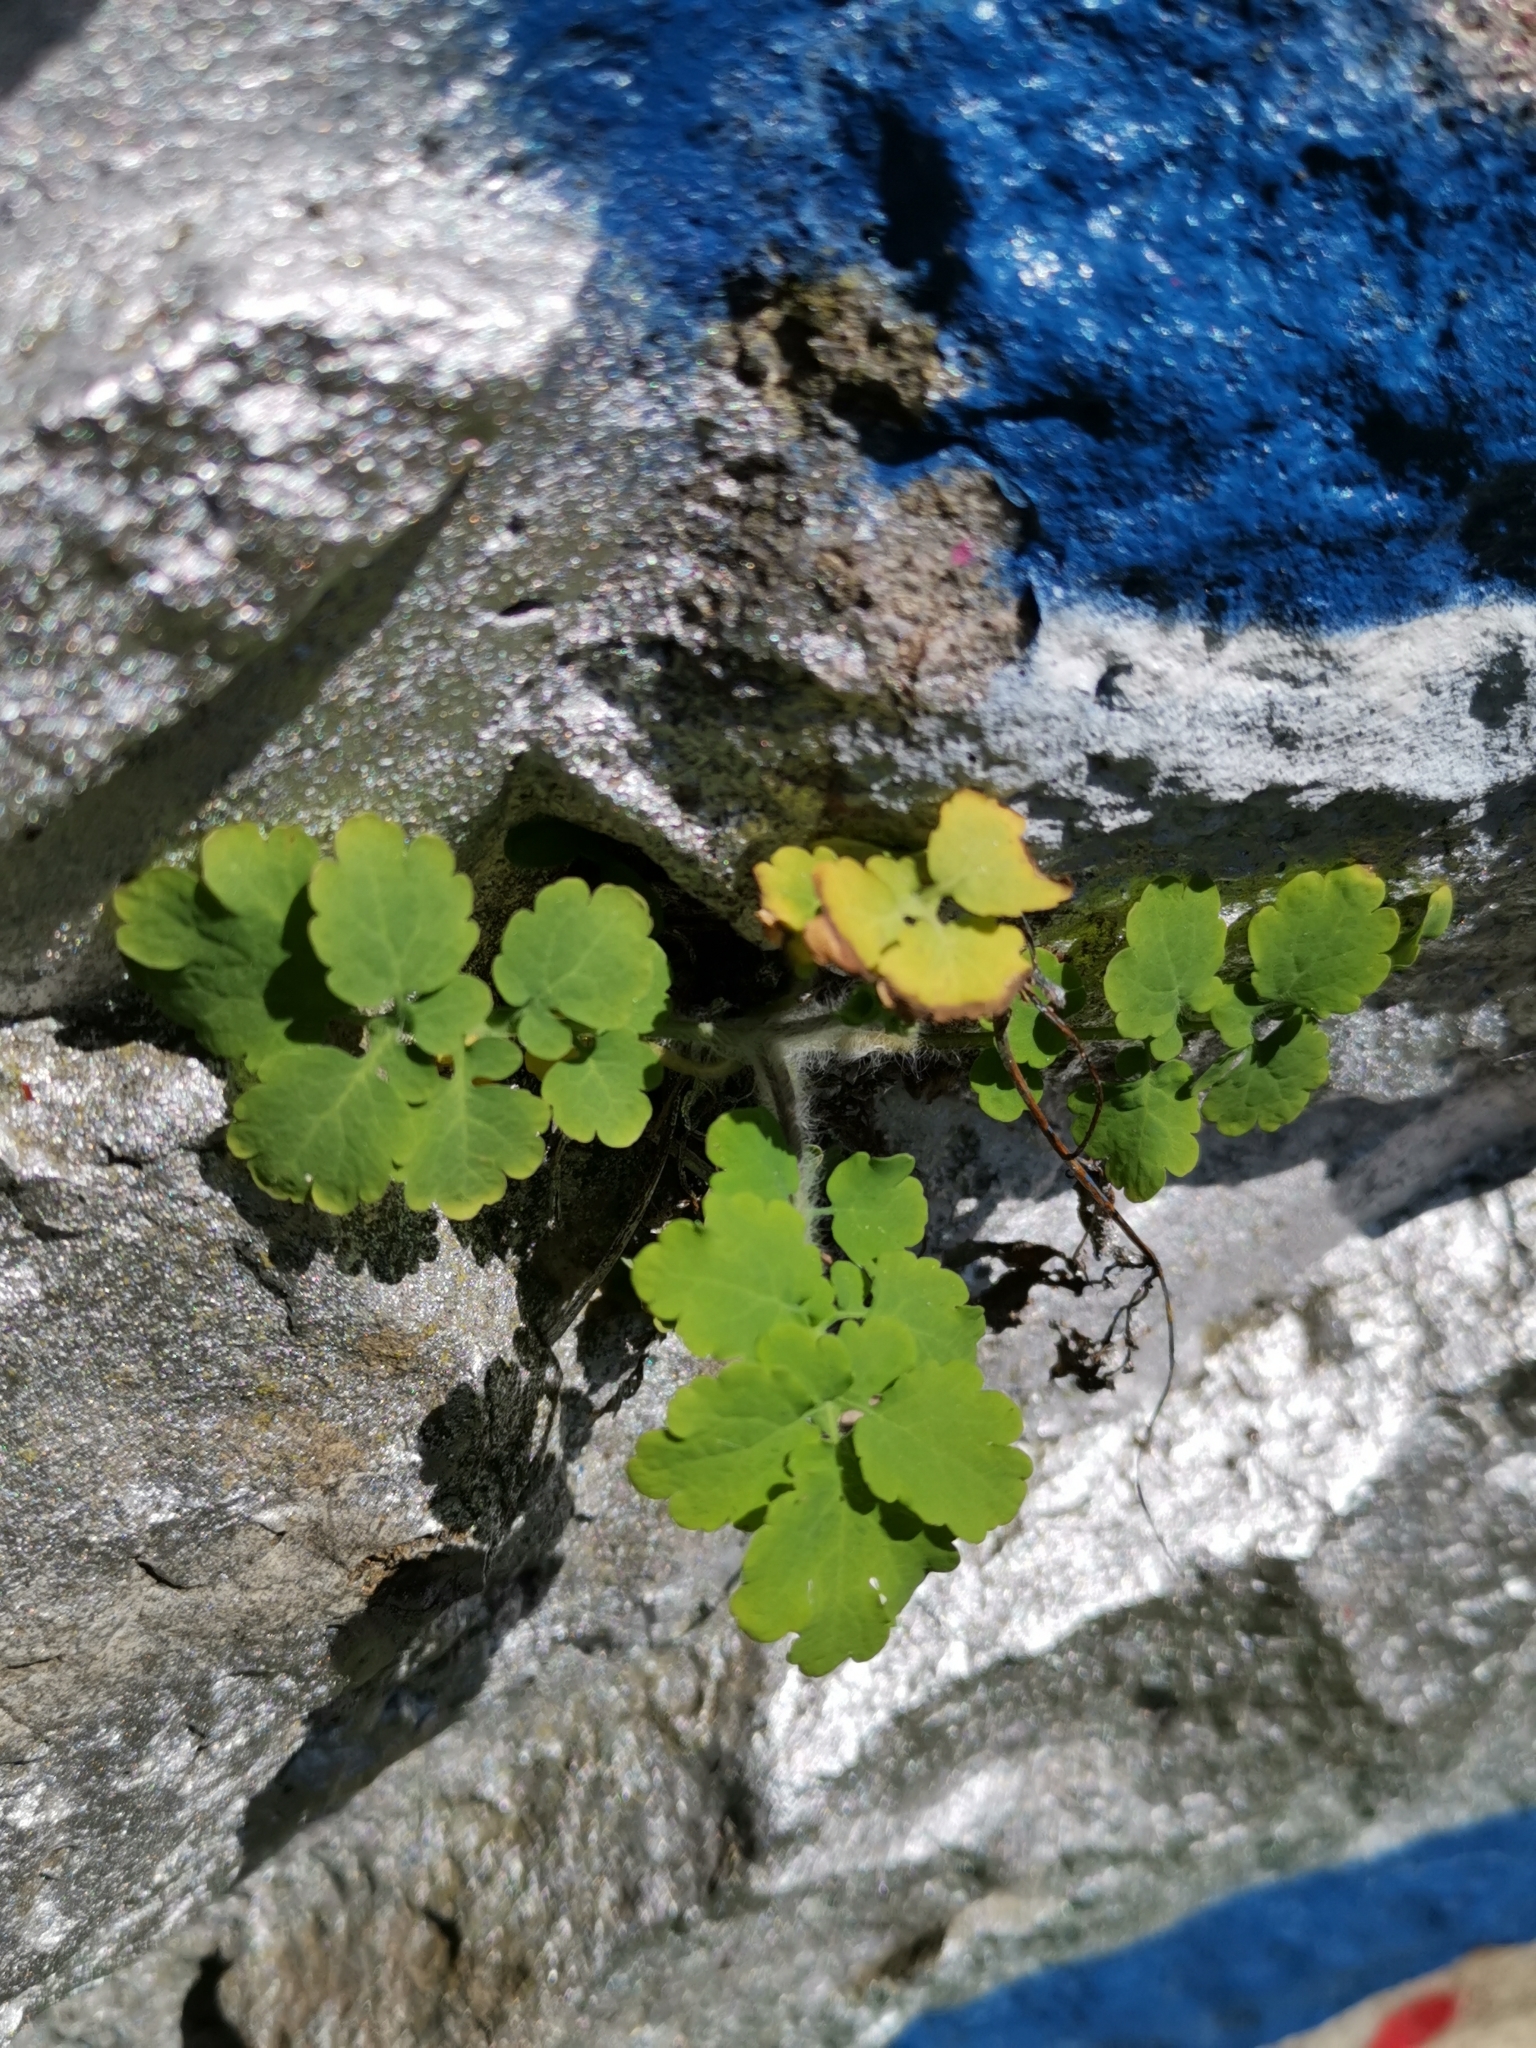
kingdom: Plantae
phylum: Tracheophyta
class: Magnoliopsida
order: Ranunculales
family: Papaveraceae
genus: Chelidonium
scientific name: Chelidonium majus
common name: Greater celandine
